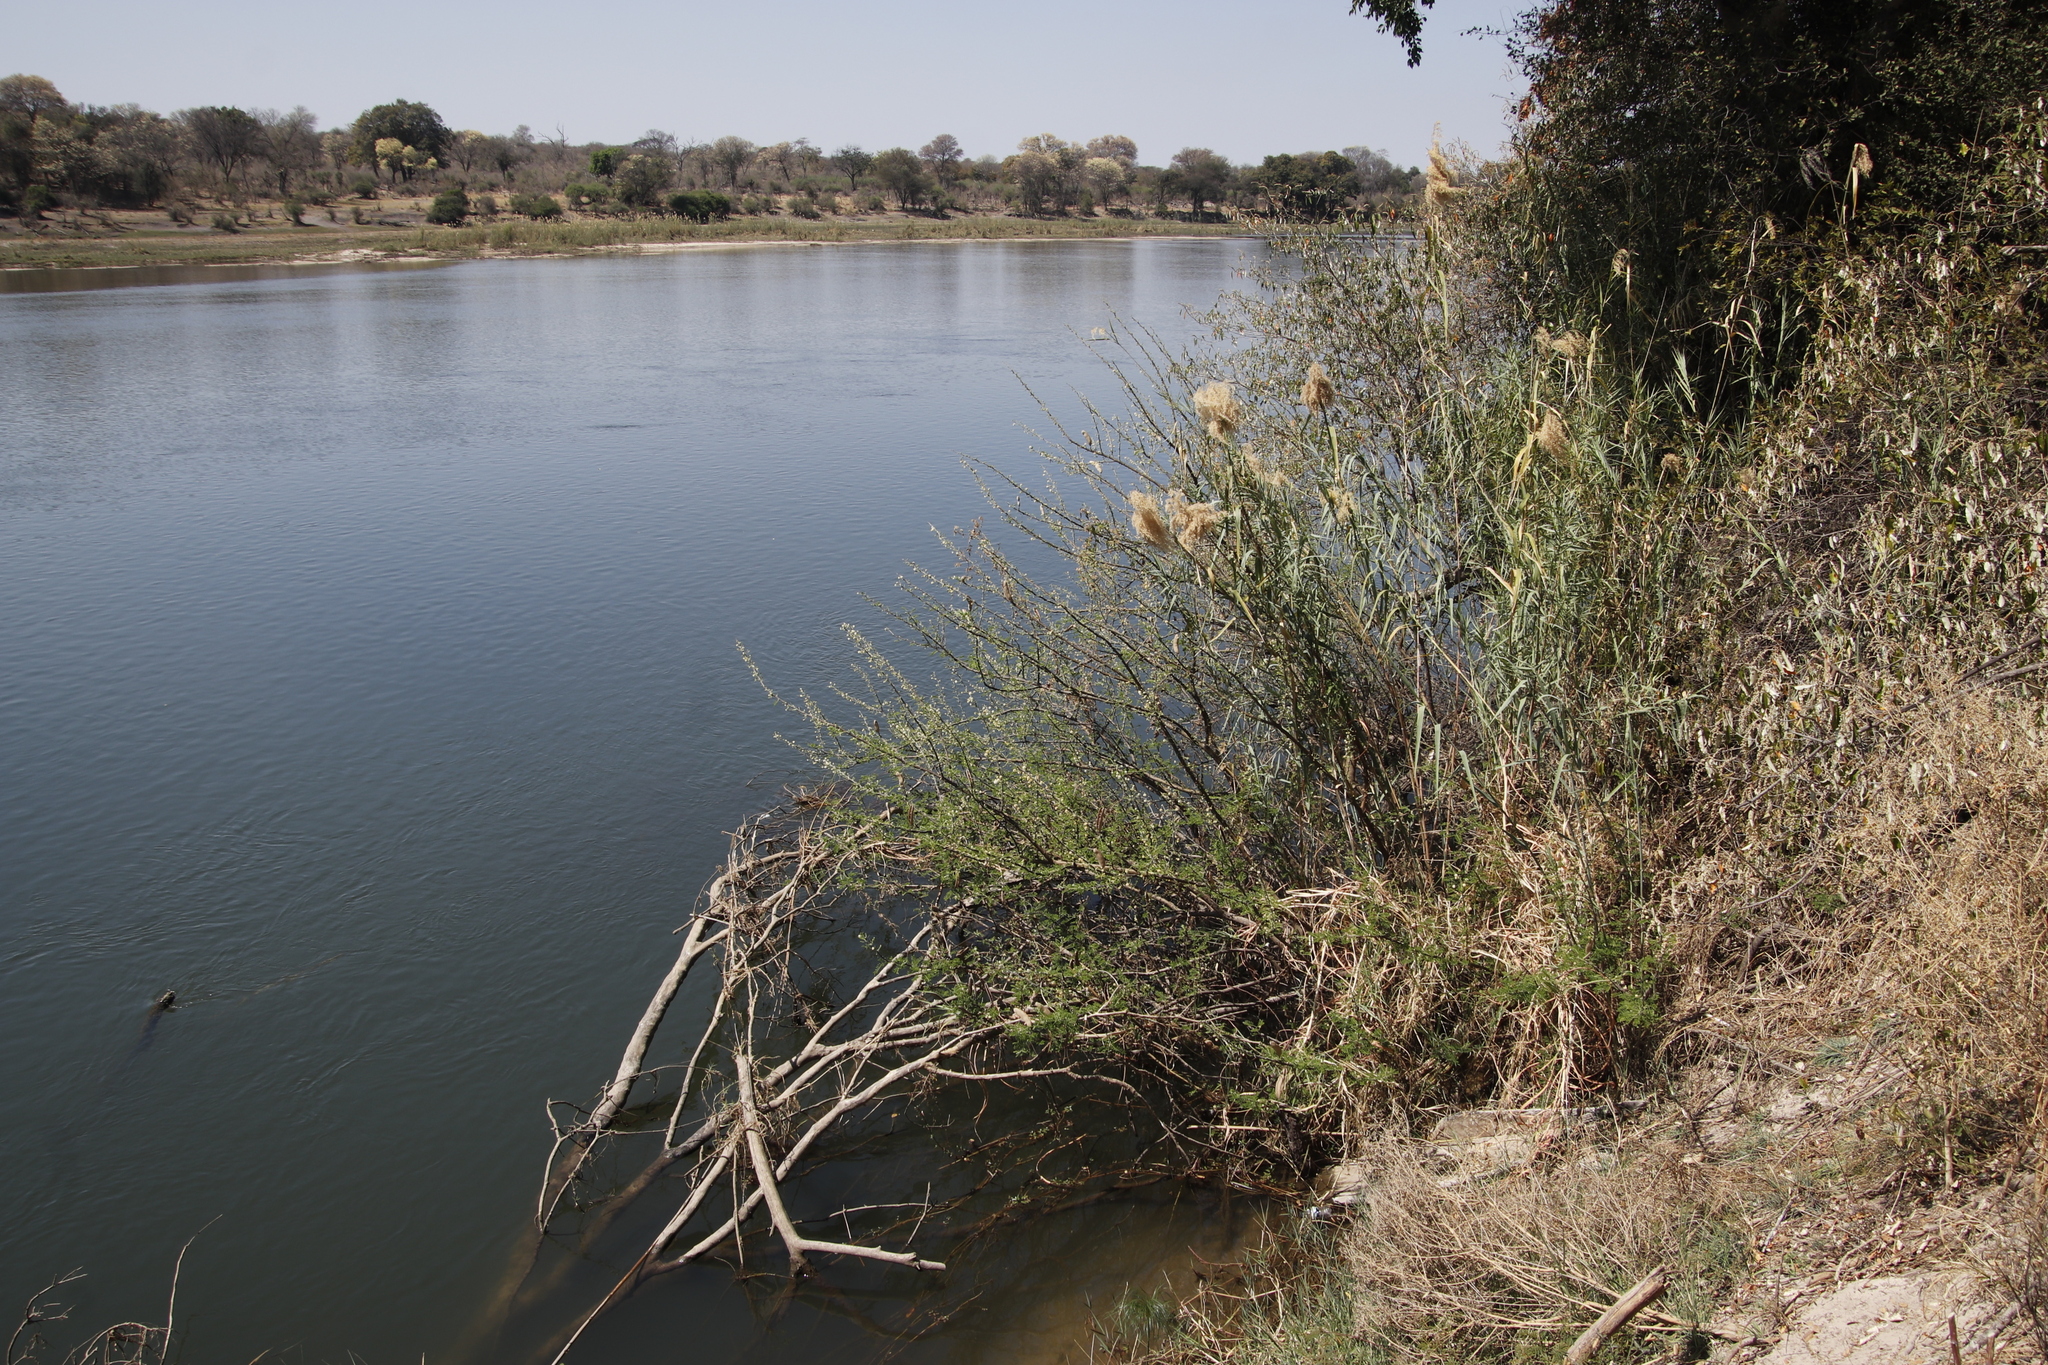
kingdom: Plantae
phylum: Tracheophyta
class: Liliopsida
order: Poales
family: Poaceae
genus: Phragmites
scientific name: Phragmites australis
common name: Common reed
